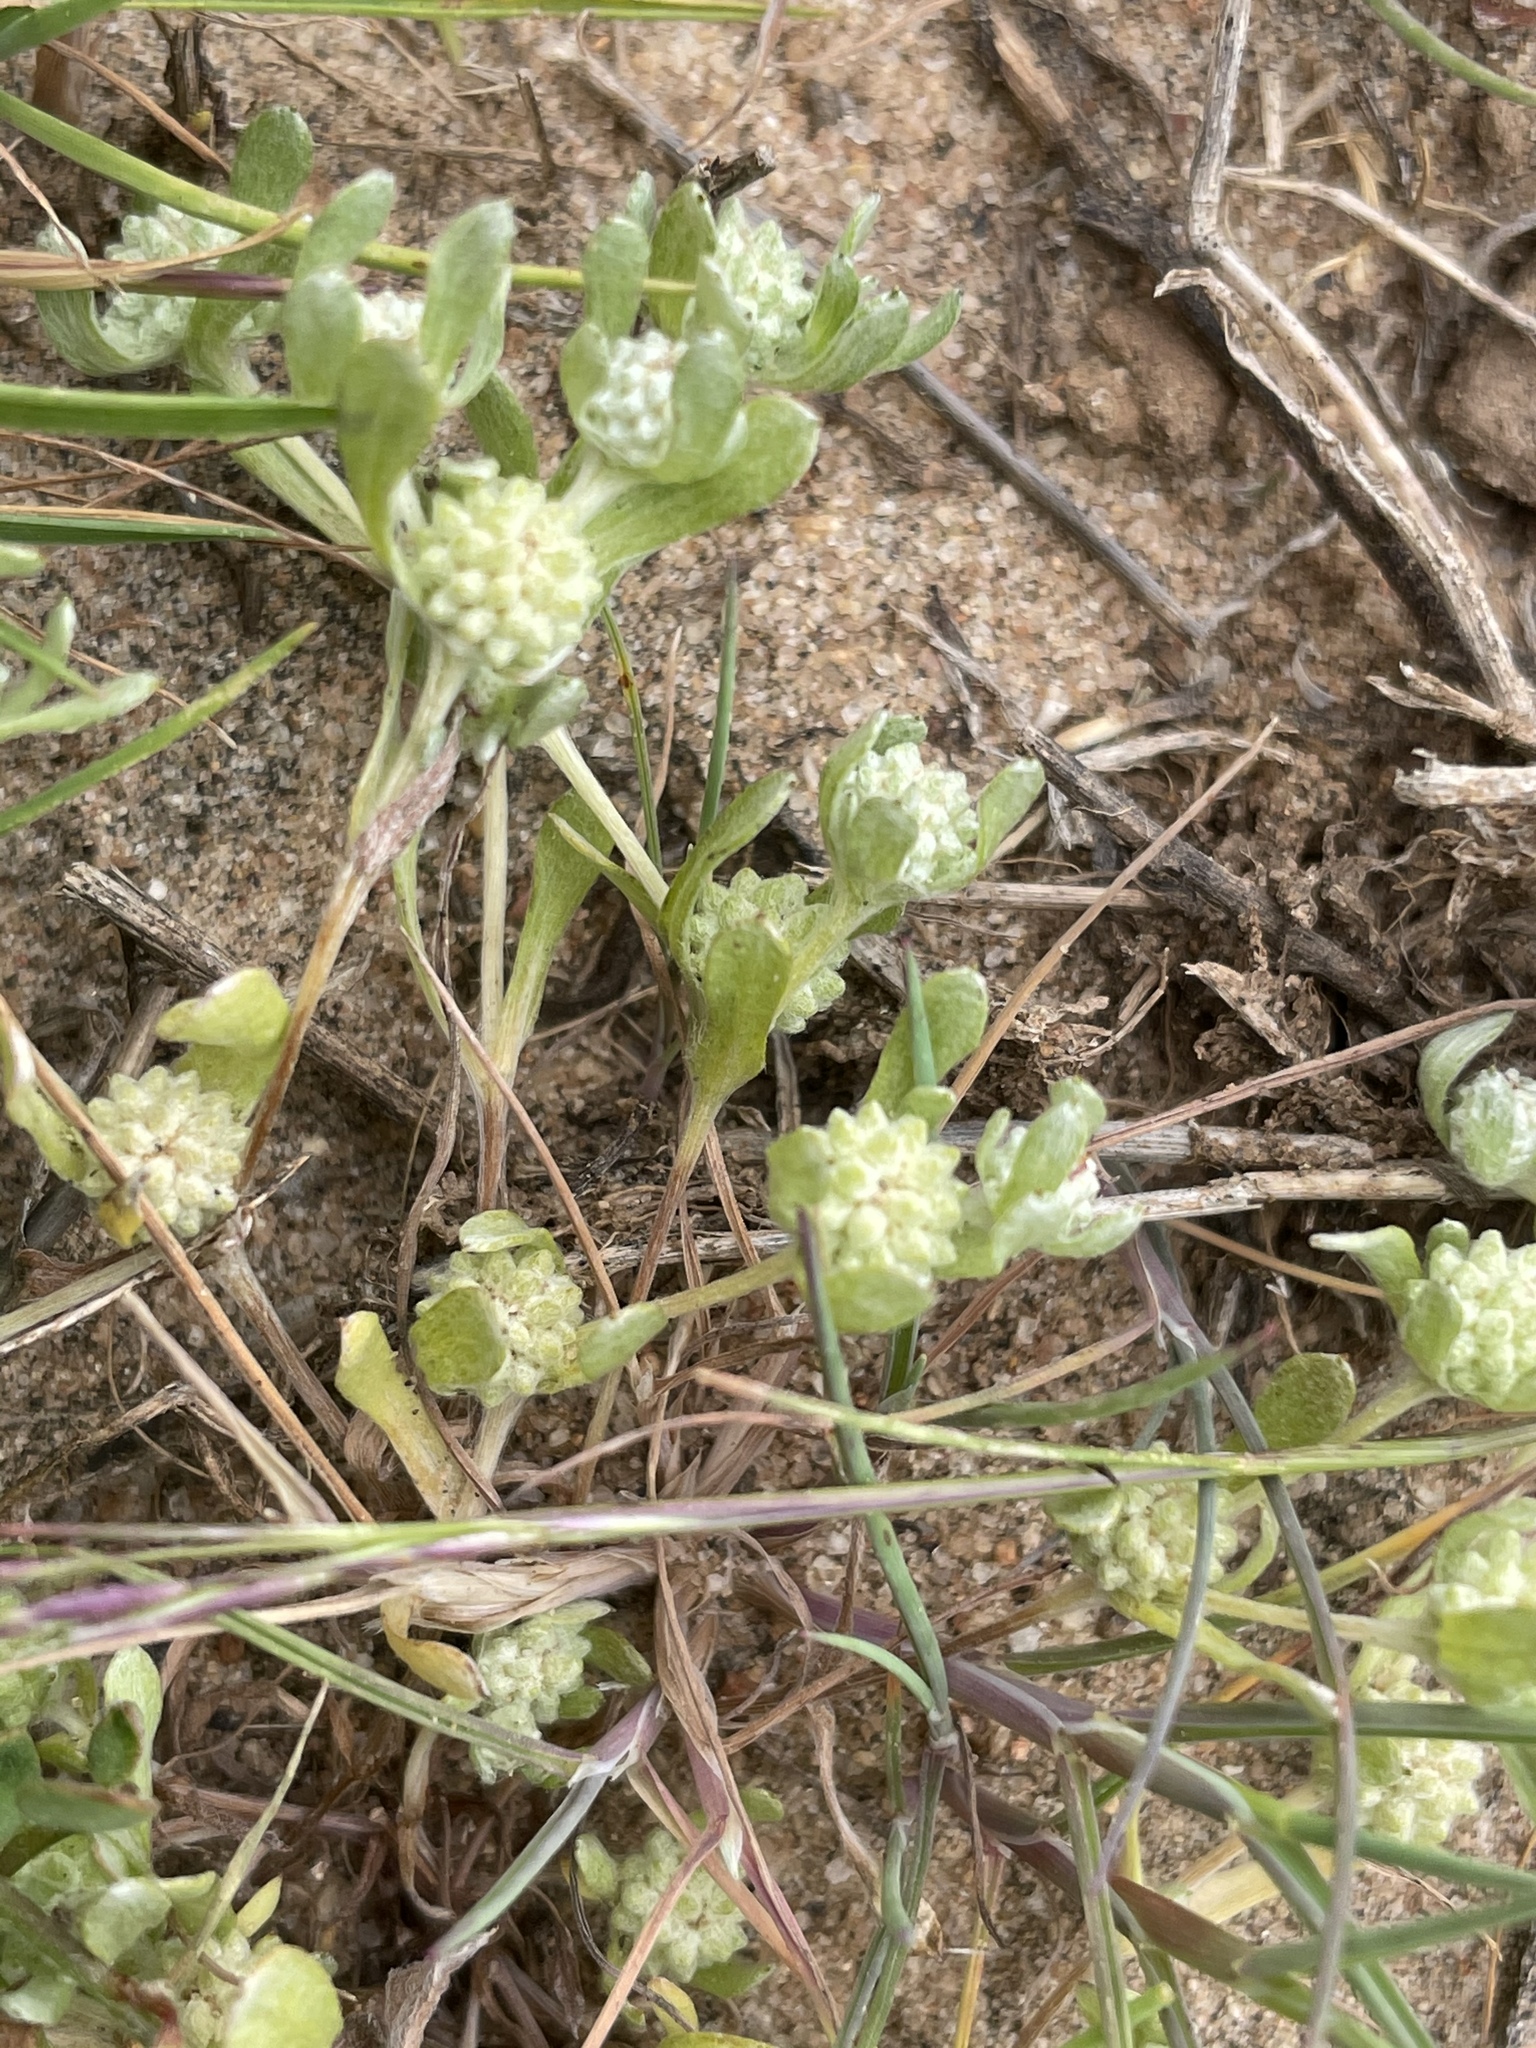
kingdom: Plantae
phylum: Tracheophyta
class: Magnoliopsida
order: Asterales
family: Asteraceae
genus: Psilocarphus
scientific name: Psilocarphus tenellus
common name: Slender woolly-marbles
